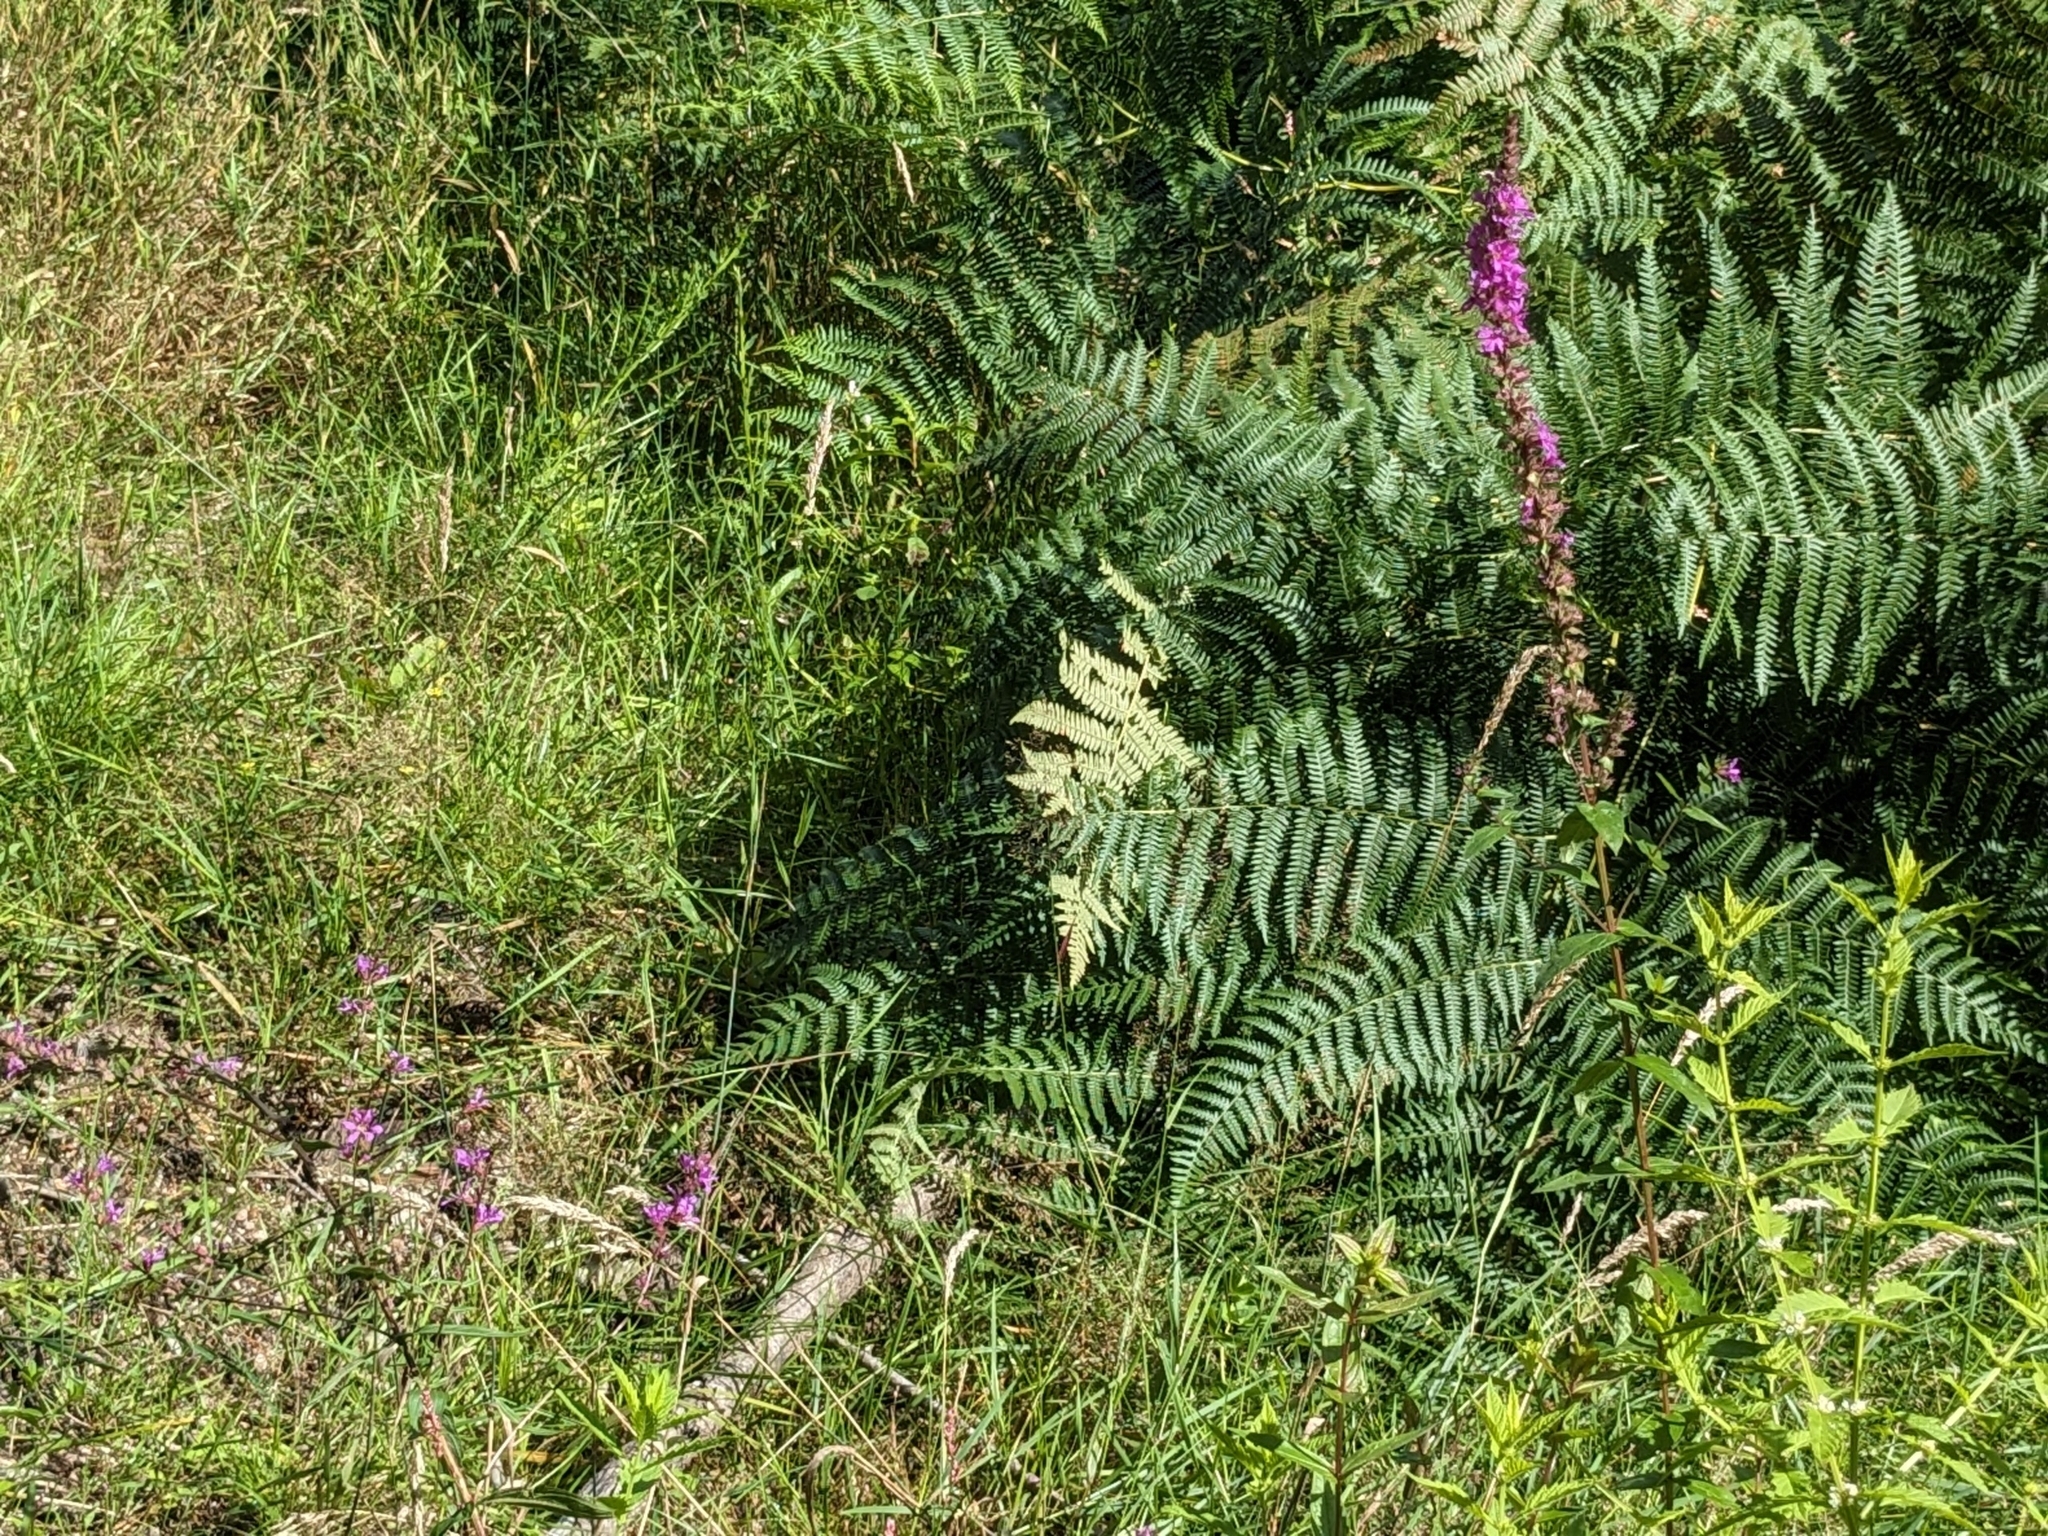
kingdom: Plantae
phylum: Tracheophyta
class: Magnoliopsida
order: Myrtales
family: Lythraceae
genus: Lythrum
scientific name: Lythrum salicaria
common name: Purple loosestrife
